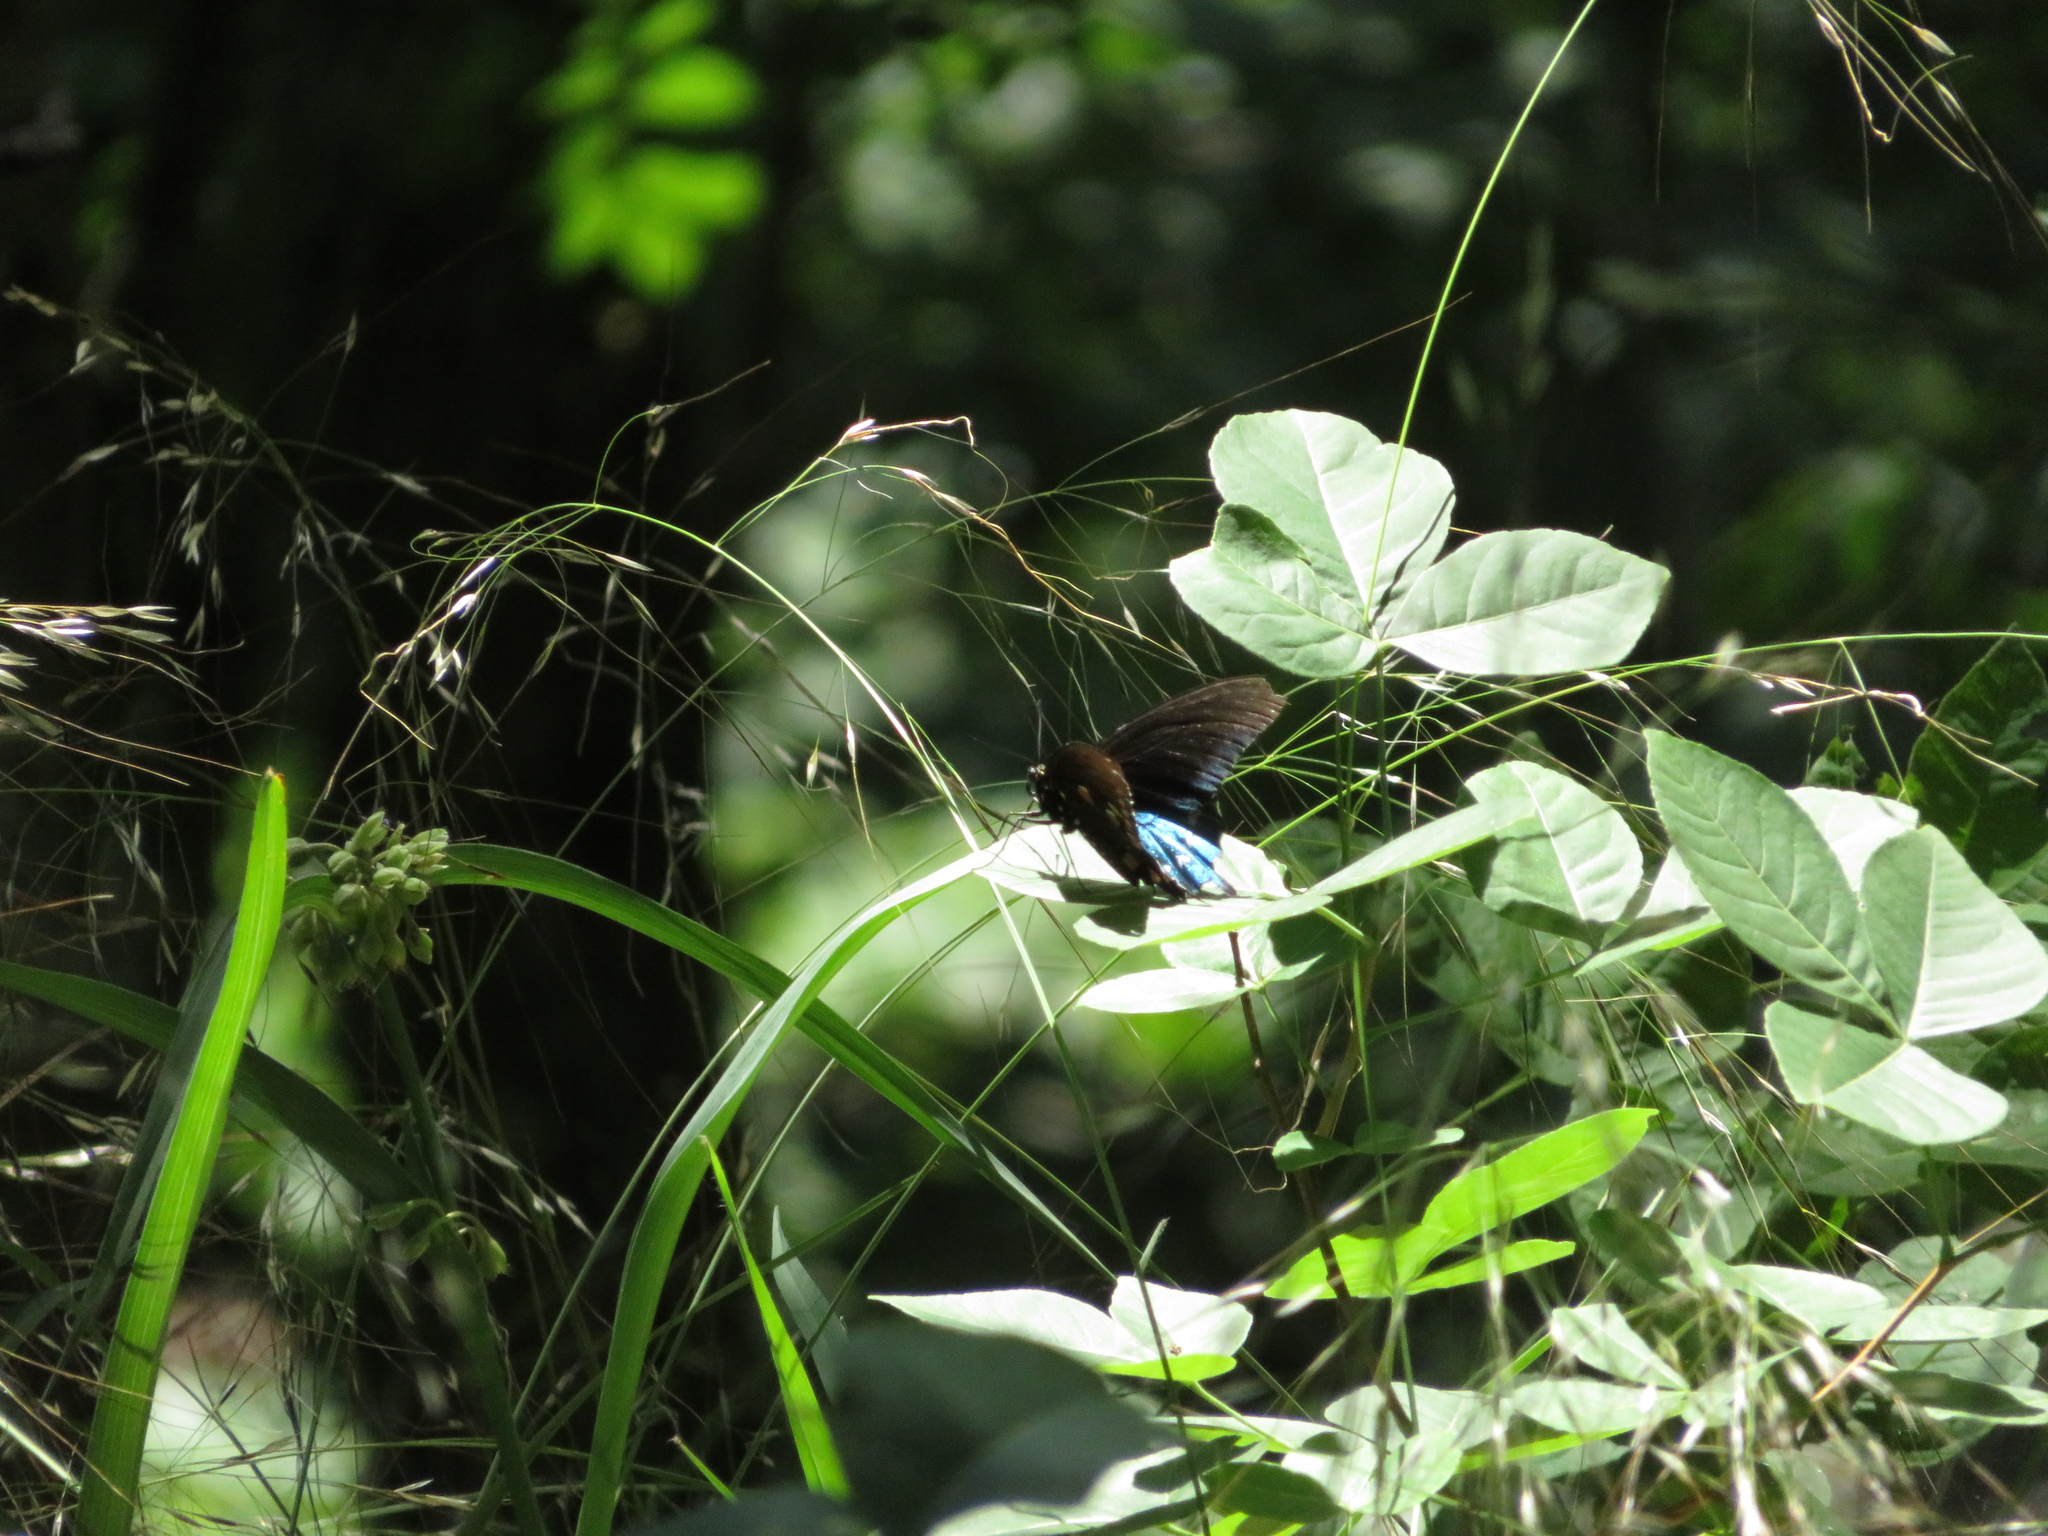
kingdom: Animalia
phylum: Arthropoda
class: Insecta
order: Lepidoptera
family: Papilionidae
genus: Battus
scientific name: Battus philenor
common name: Pipevine swallowtail
